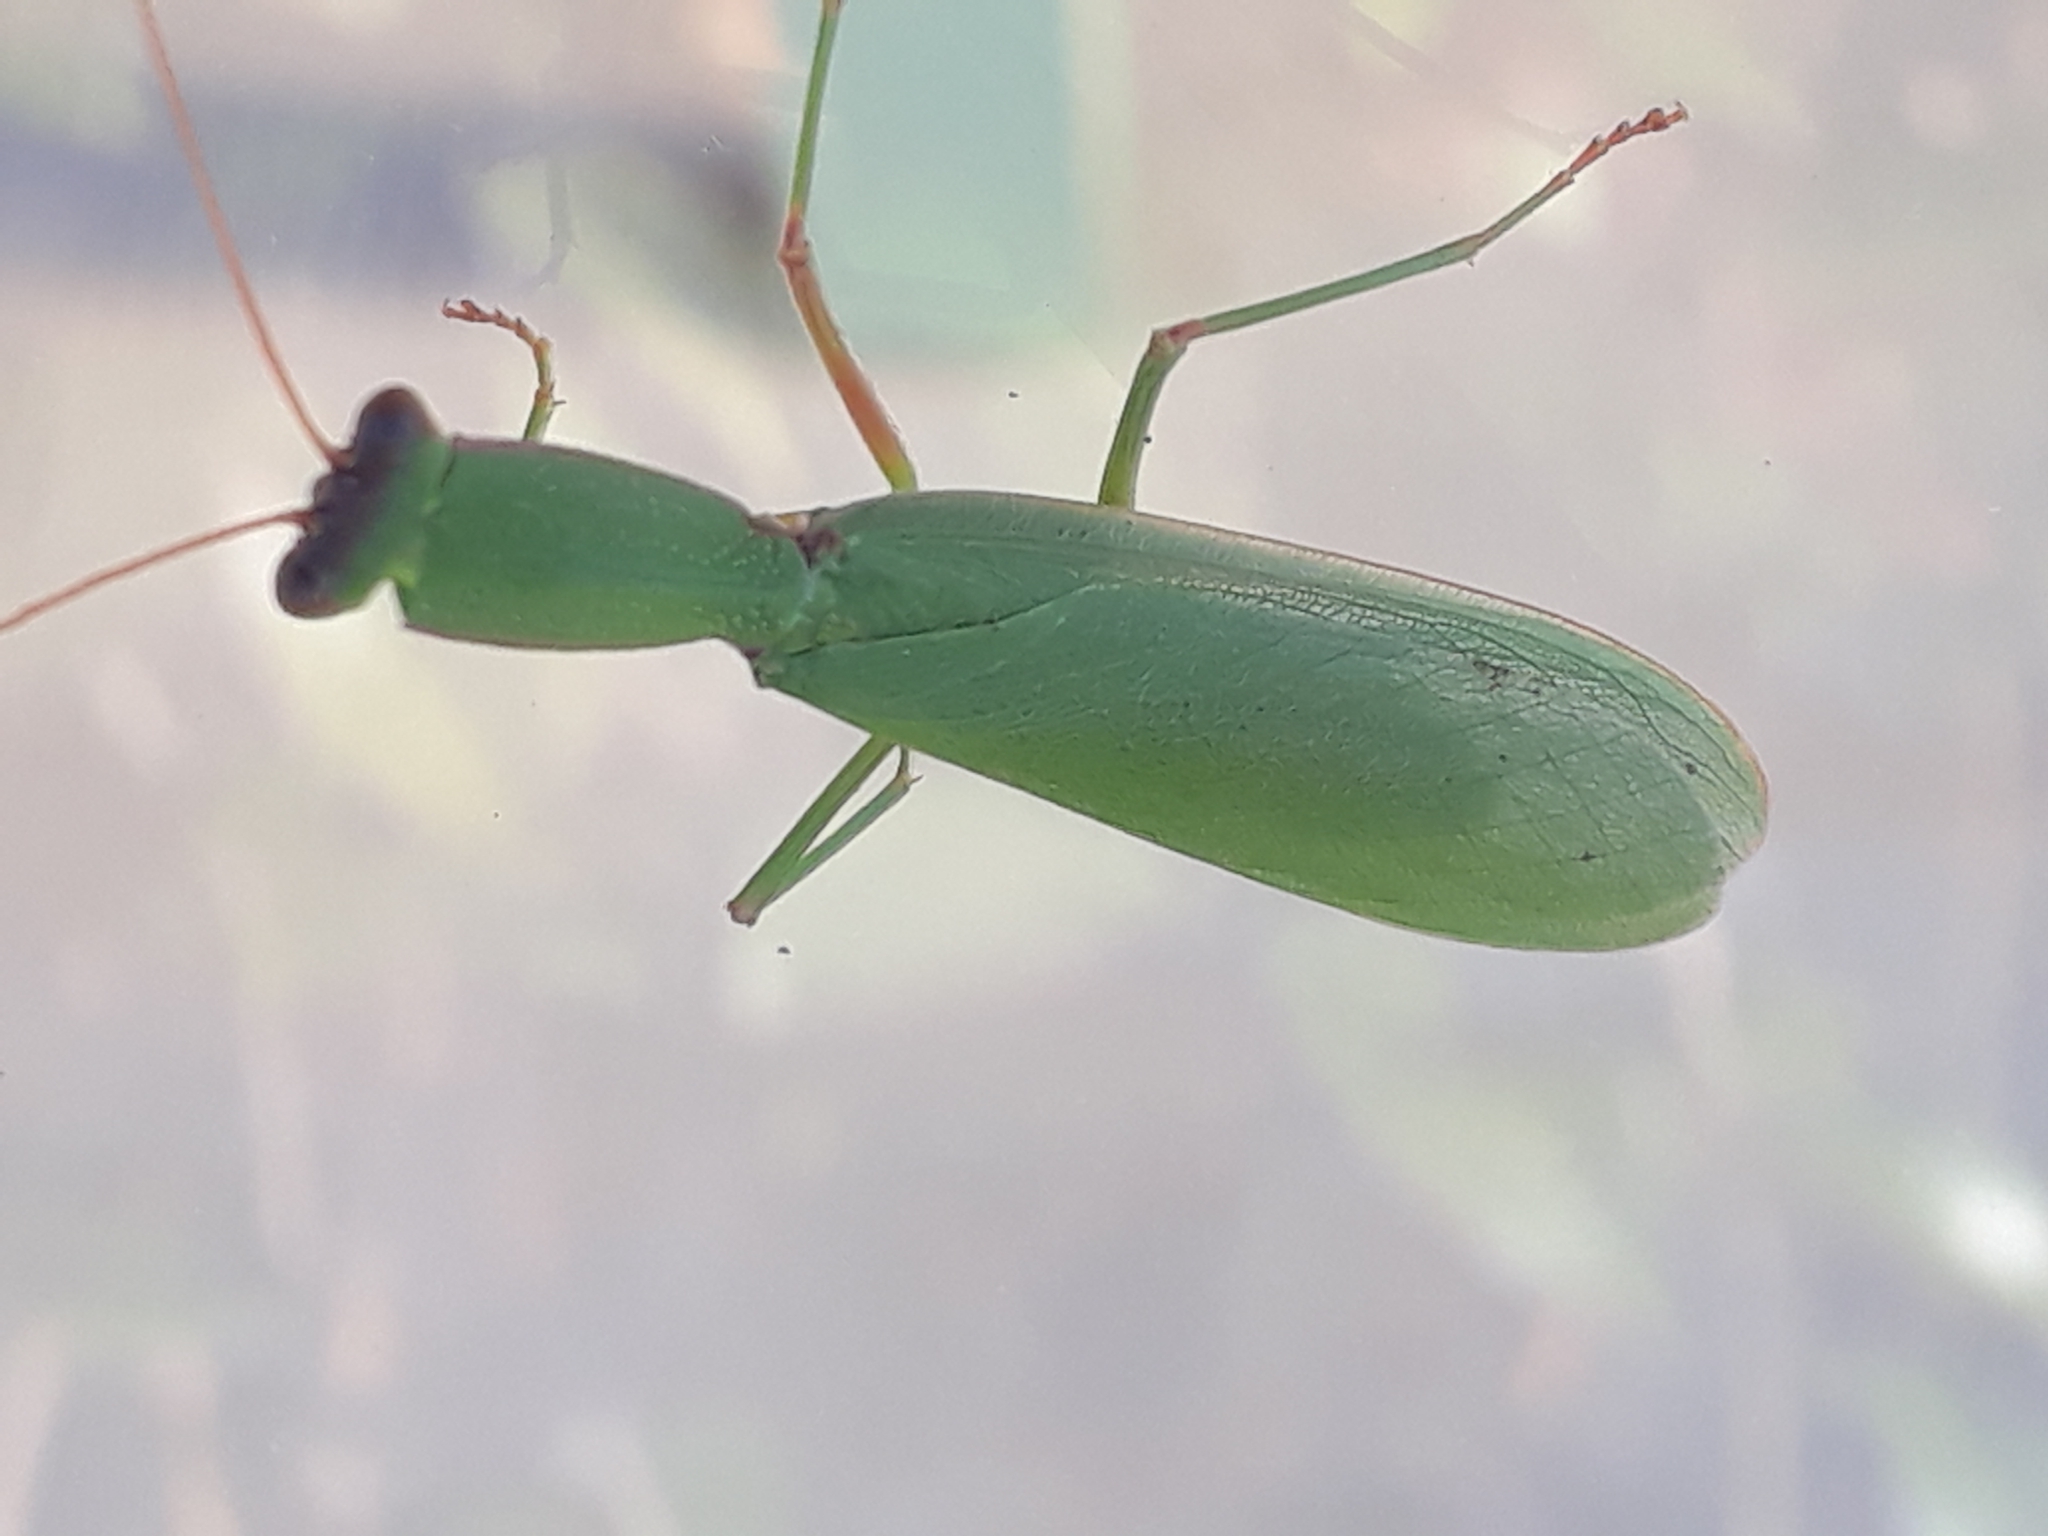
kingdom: Animalia
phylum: Arthropoda
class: Insecta
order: Mantodea
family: Mantidae
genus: Orthodera
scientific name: Orthodera novaezealandiae
